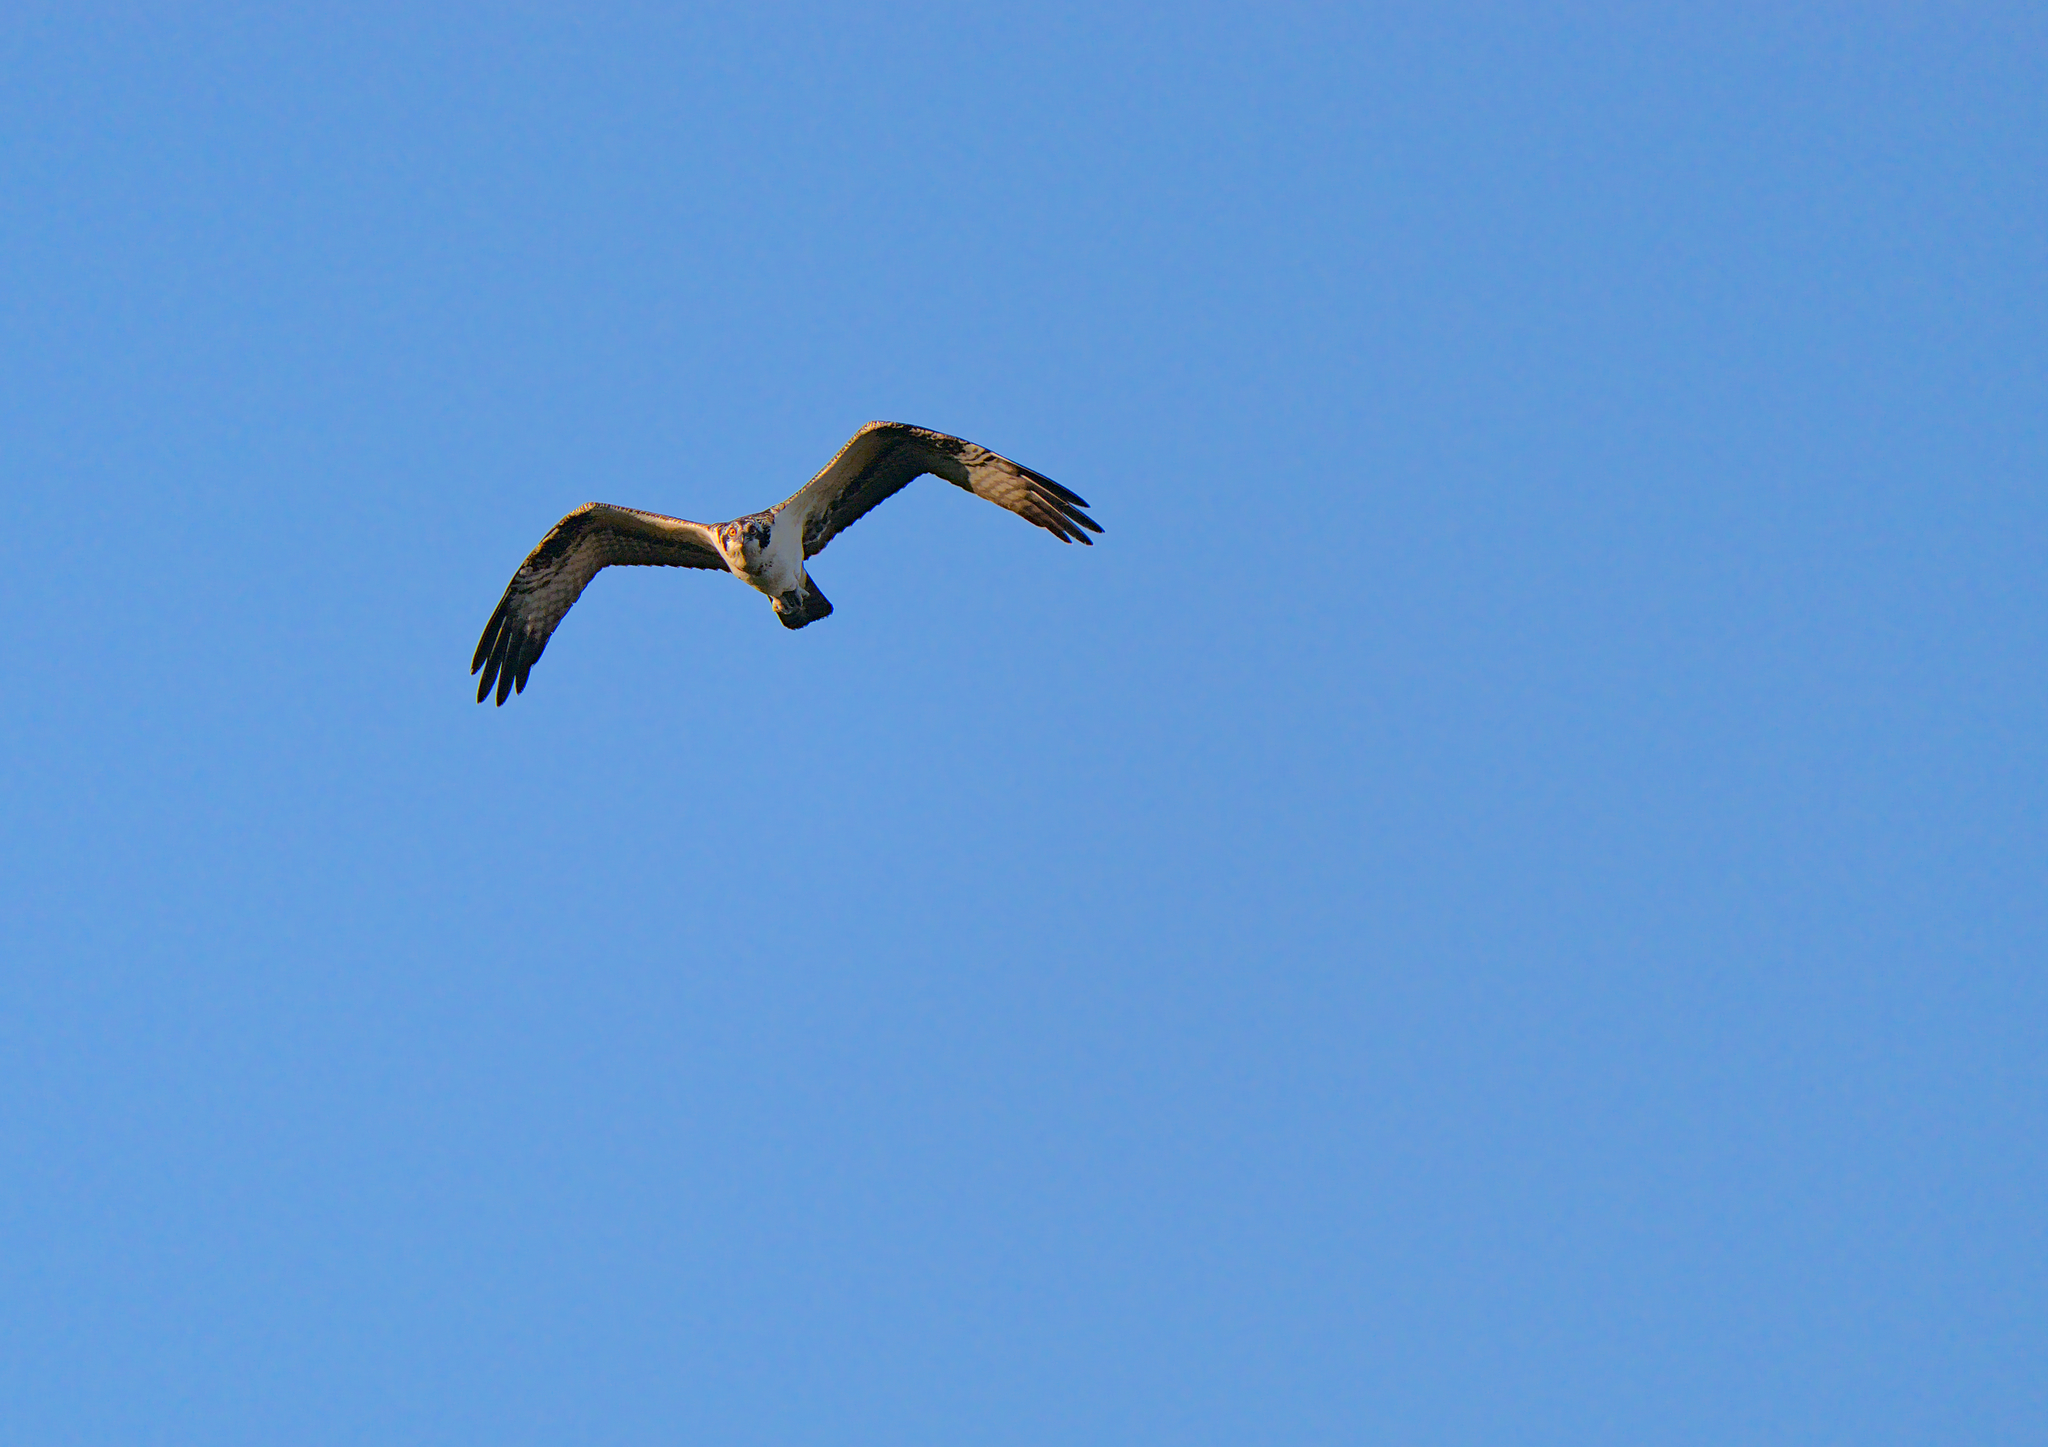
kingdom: Animalia
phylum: Chordata
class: Aves
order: Accipitriformes
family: Pandionidae
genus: Pandion
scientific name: Pandion haliaetus
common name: Osprey
